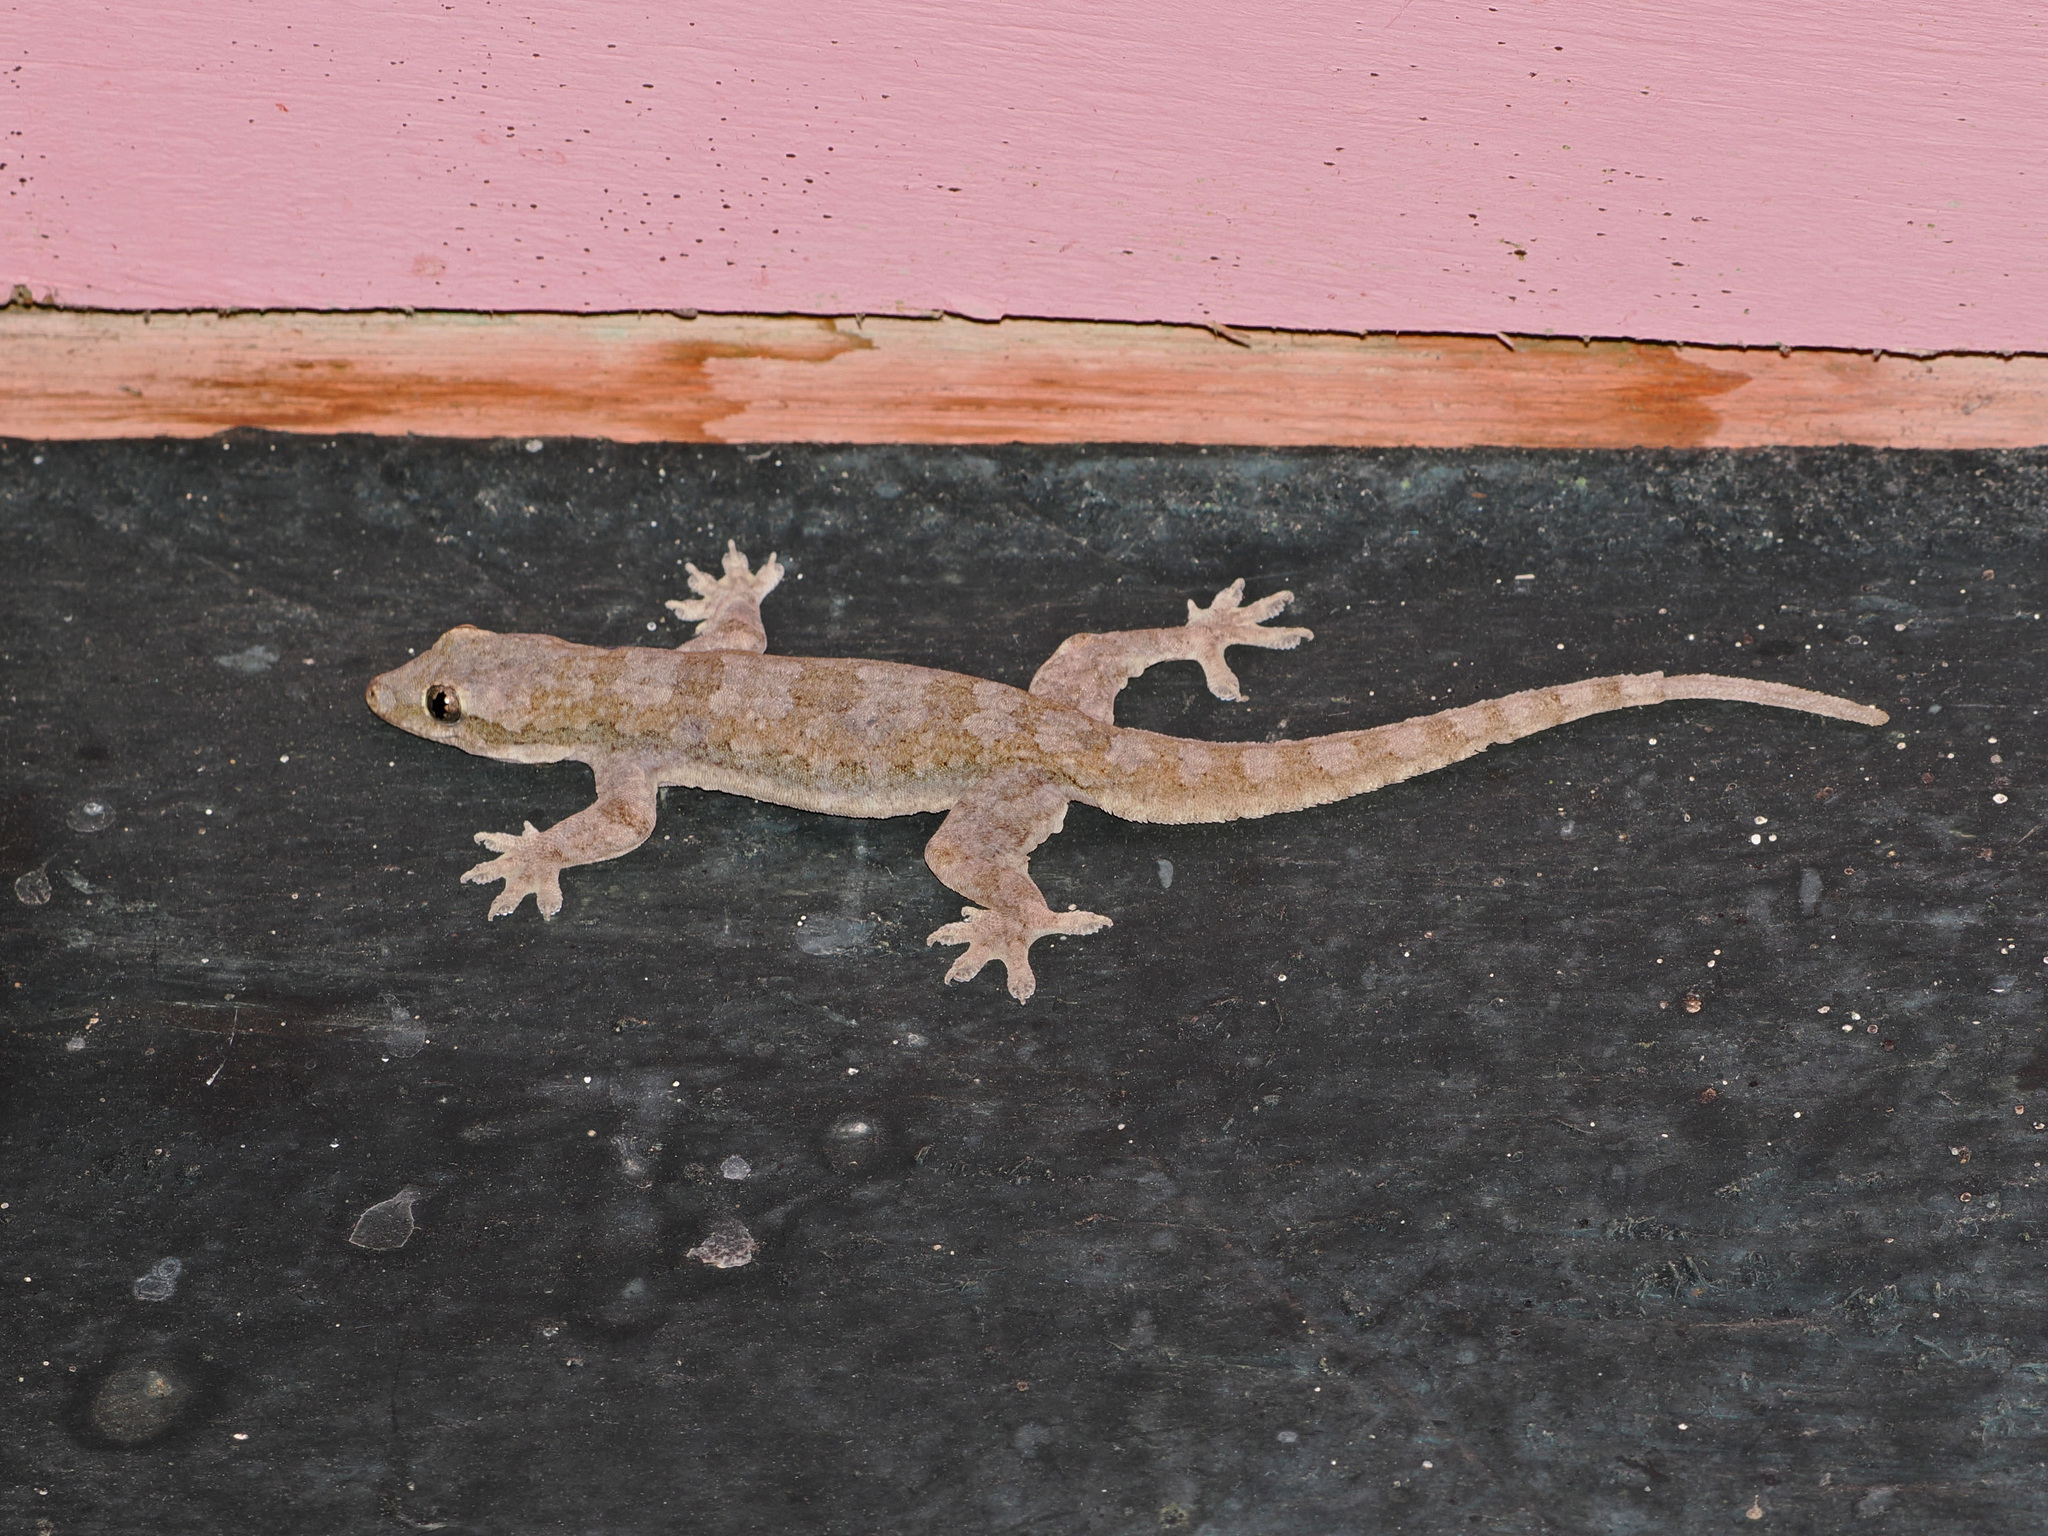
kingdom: Animalia
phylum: Chordata
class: Squamata
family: Gekkonidae
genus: Hemidactylus
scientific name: Hemidactylus platyurus
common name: Flat-tailed house gecko
